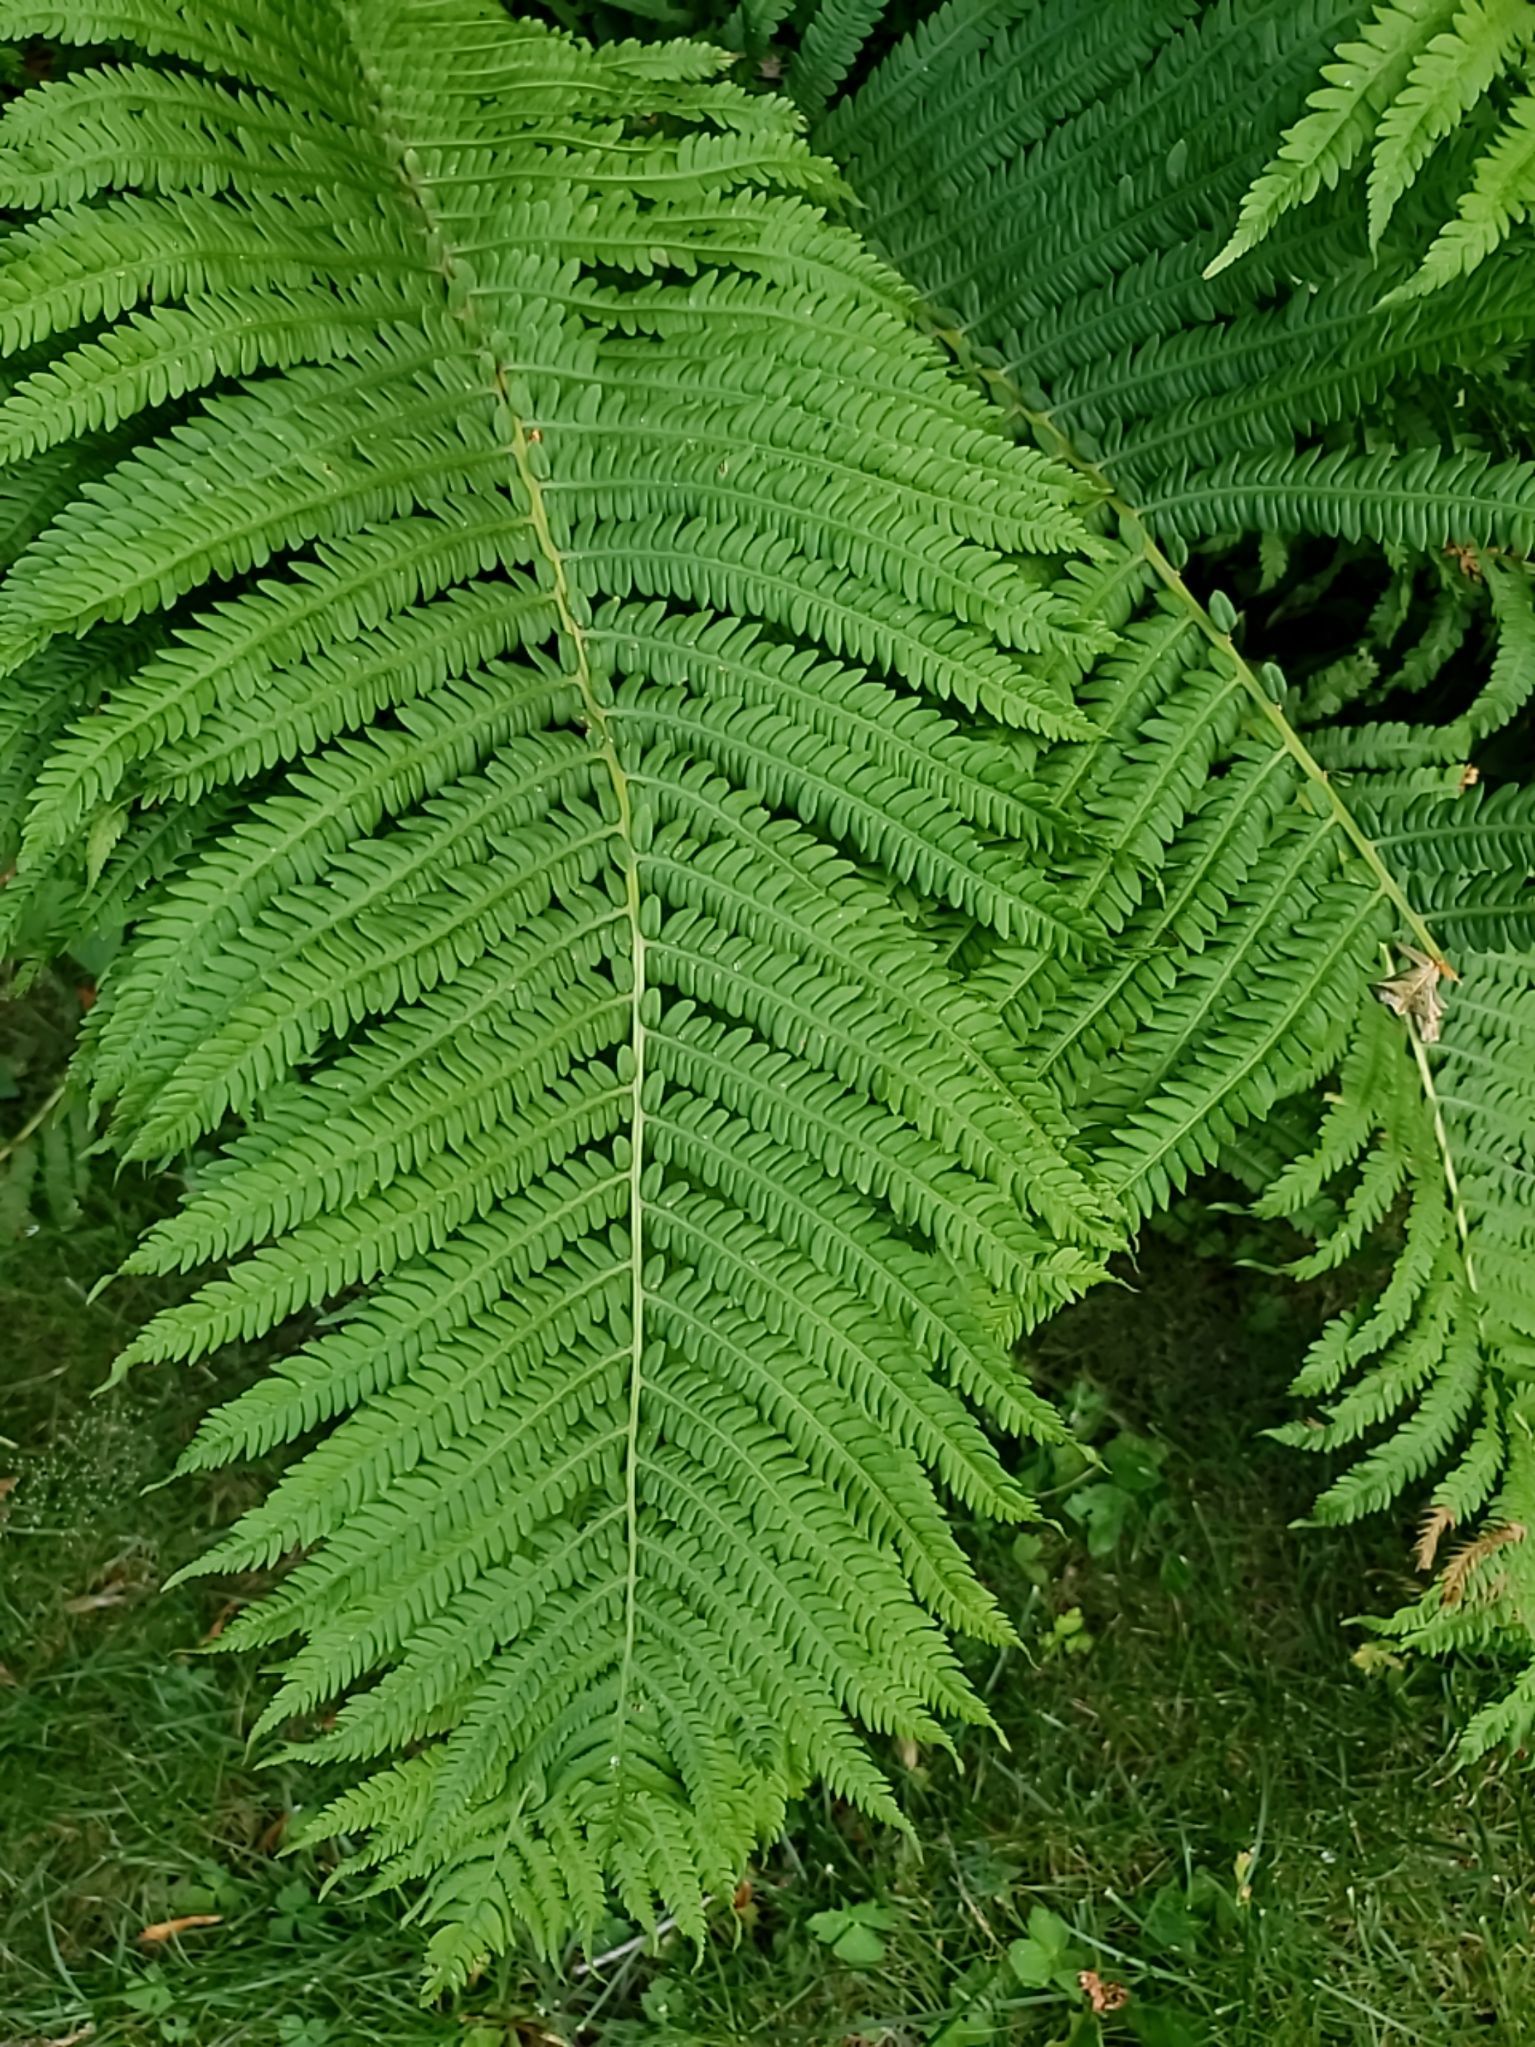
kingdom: Plantae
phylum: Tracheophyta
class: Polypodiopsida
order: Polypodiales
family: Onocleaceae
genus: Matteuccia
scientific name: Matteuccia struthiopteris
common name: Ostrich fern
